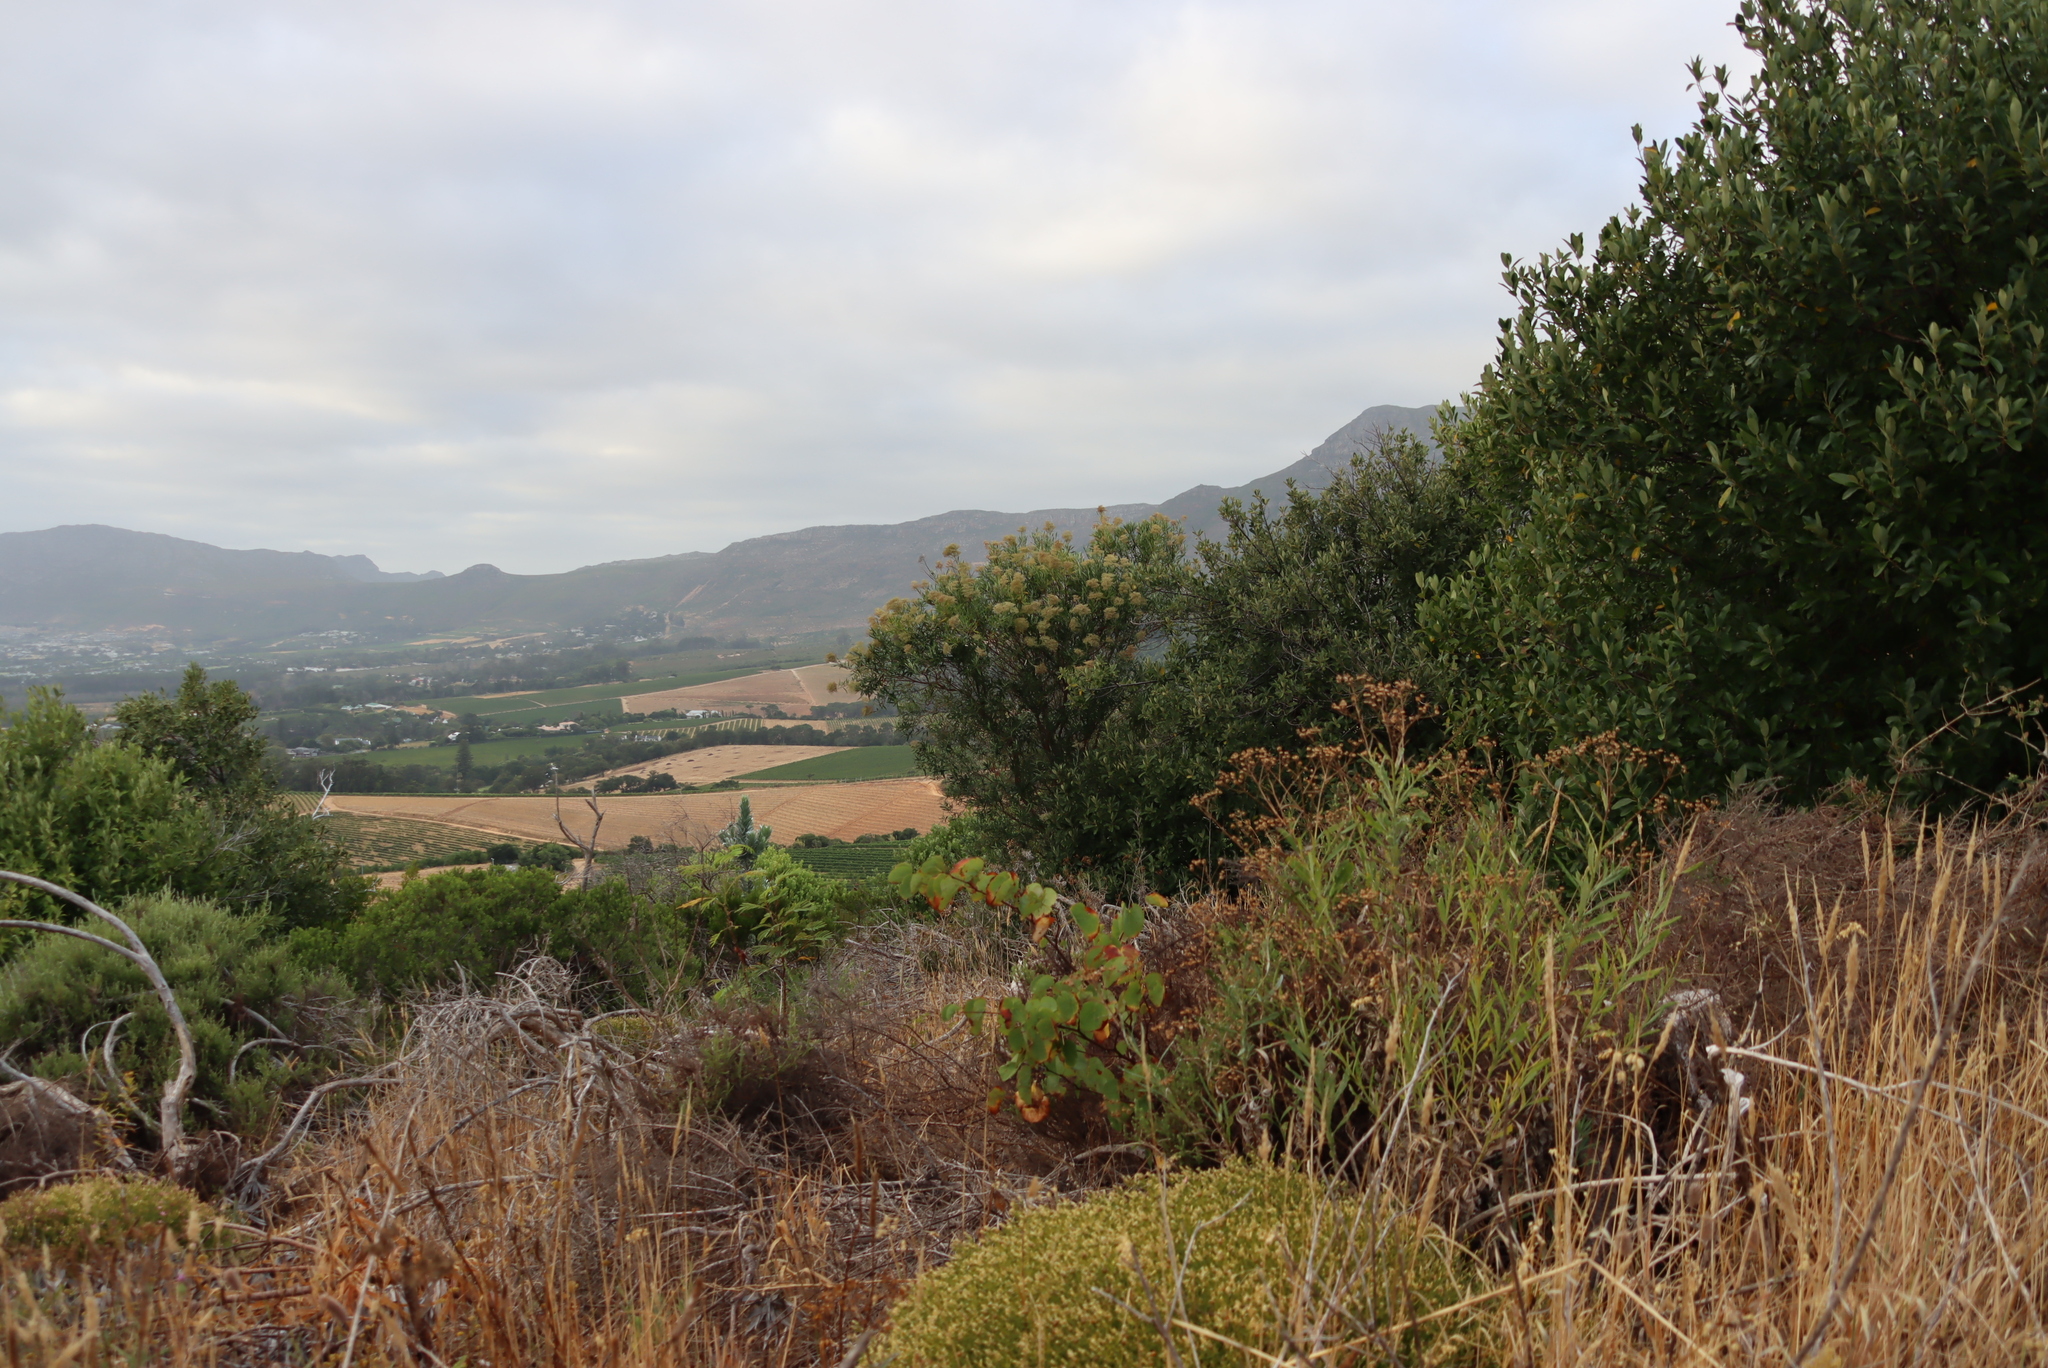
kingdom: Plantae
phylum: Tracheophyta
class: Magnoliopsida
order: Lamiales
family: Scrophulariaceae
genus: Buddleja
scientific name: Buddleja saligna
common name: False olive
